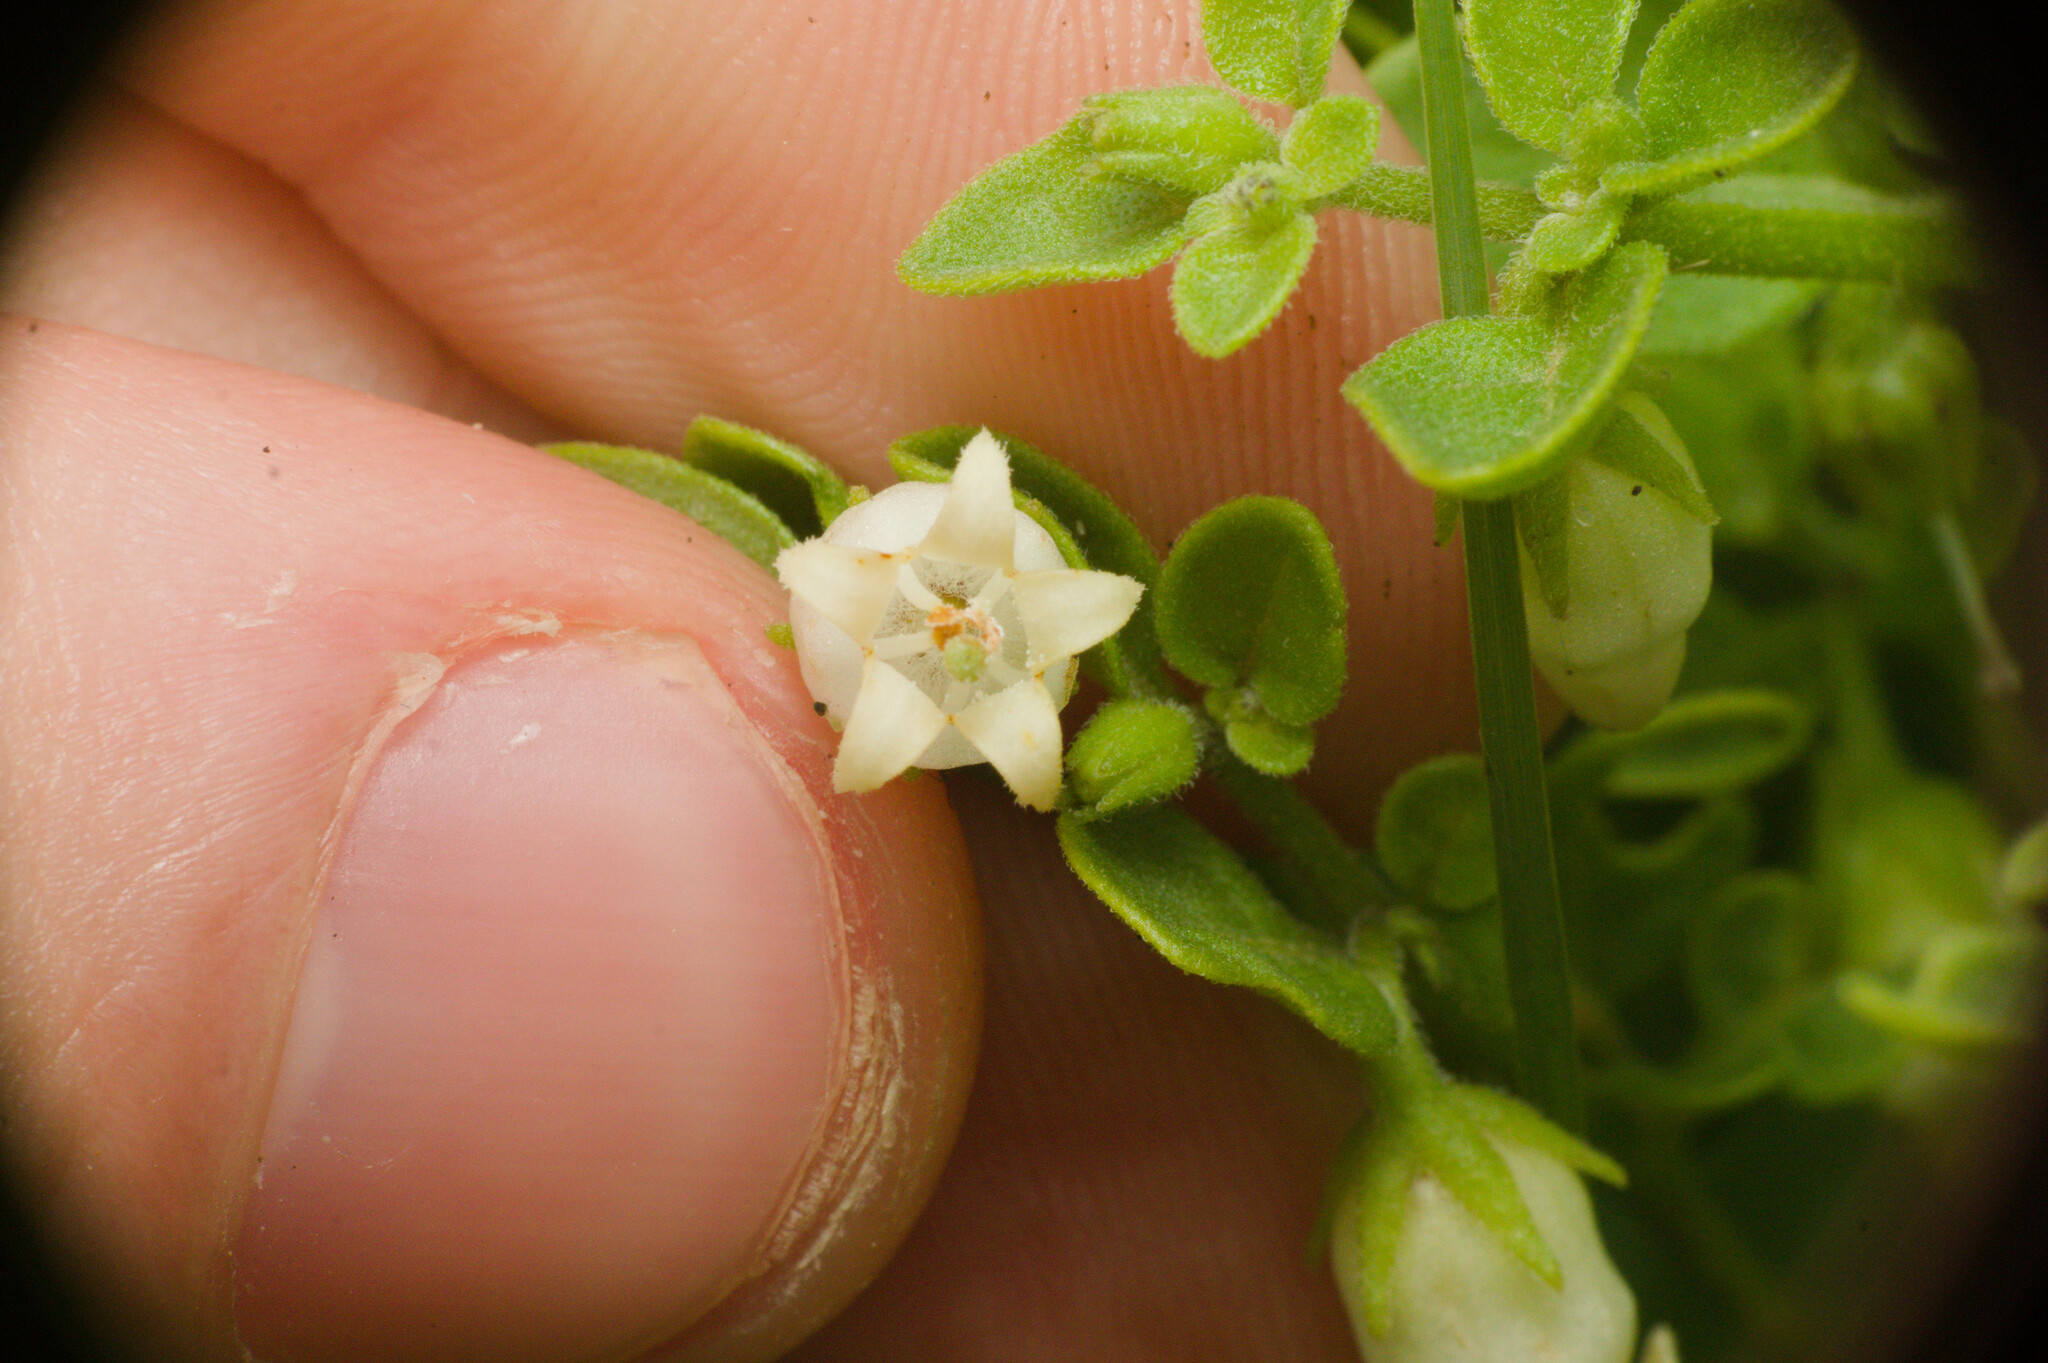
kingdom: Plantae
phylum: Tracheophyta
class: Magnoliopsida
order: Solanales
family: Solanaceae
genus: Salpichroa
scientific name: Salpichroa origanifolia
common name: Lily-of-the-valley-vine
